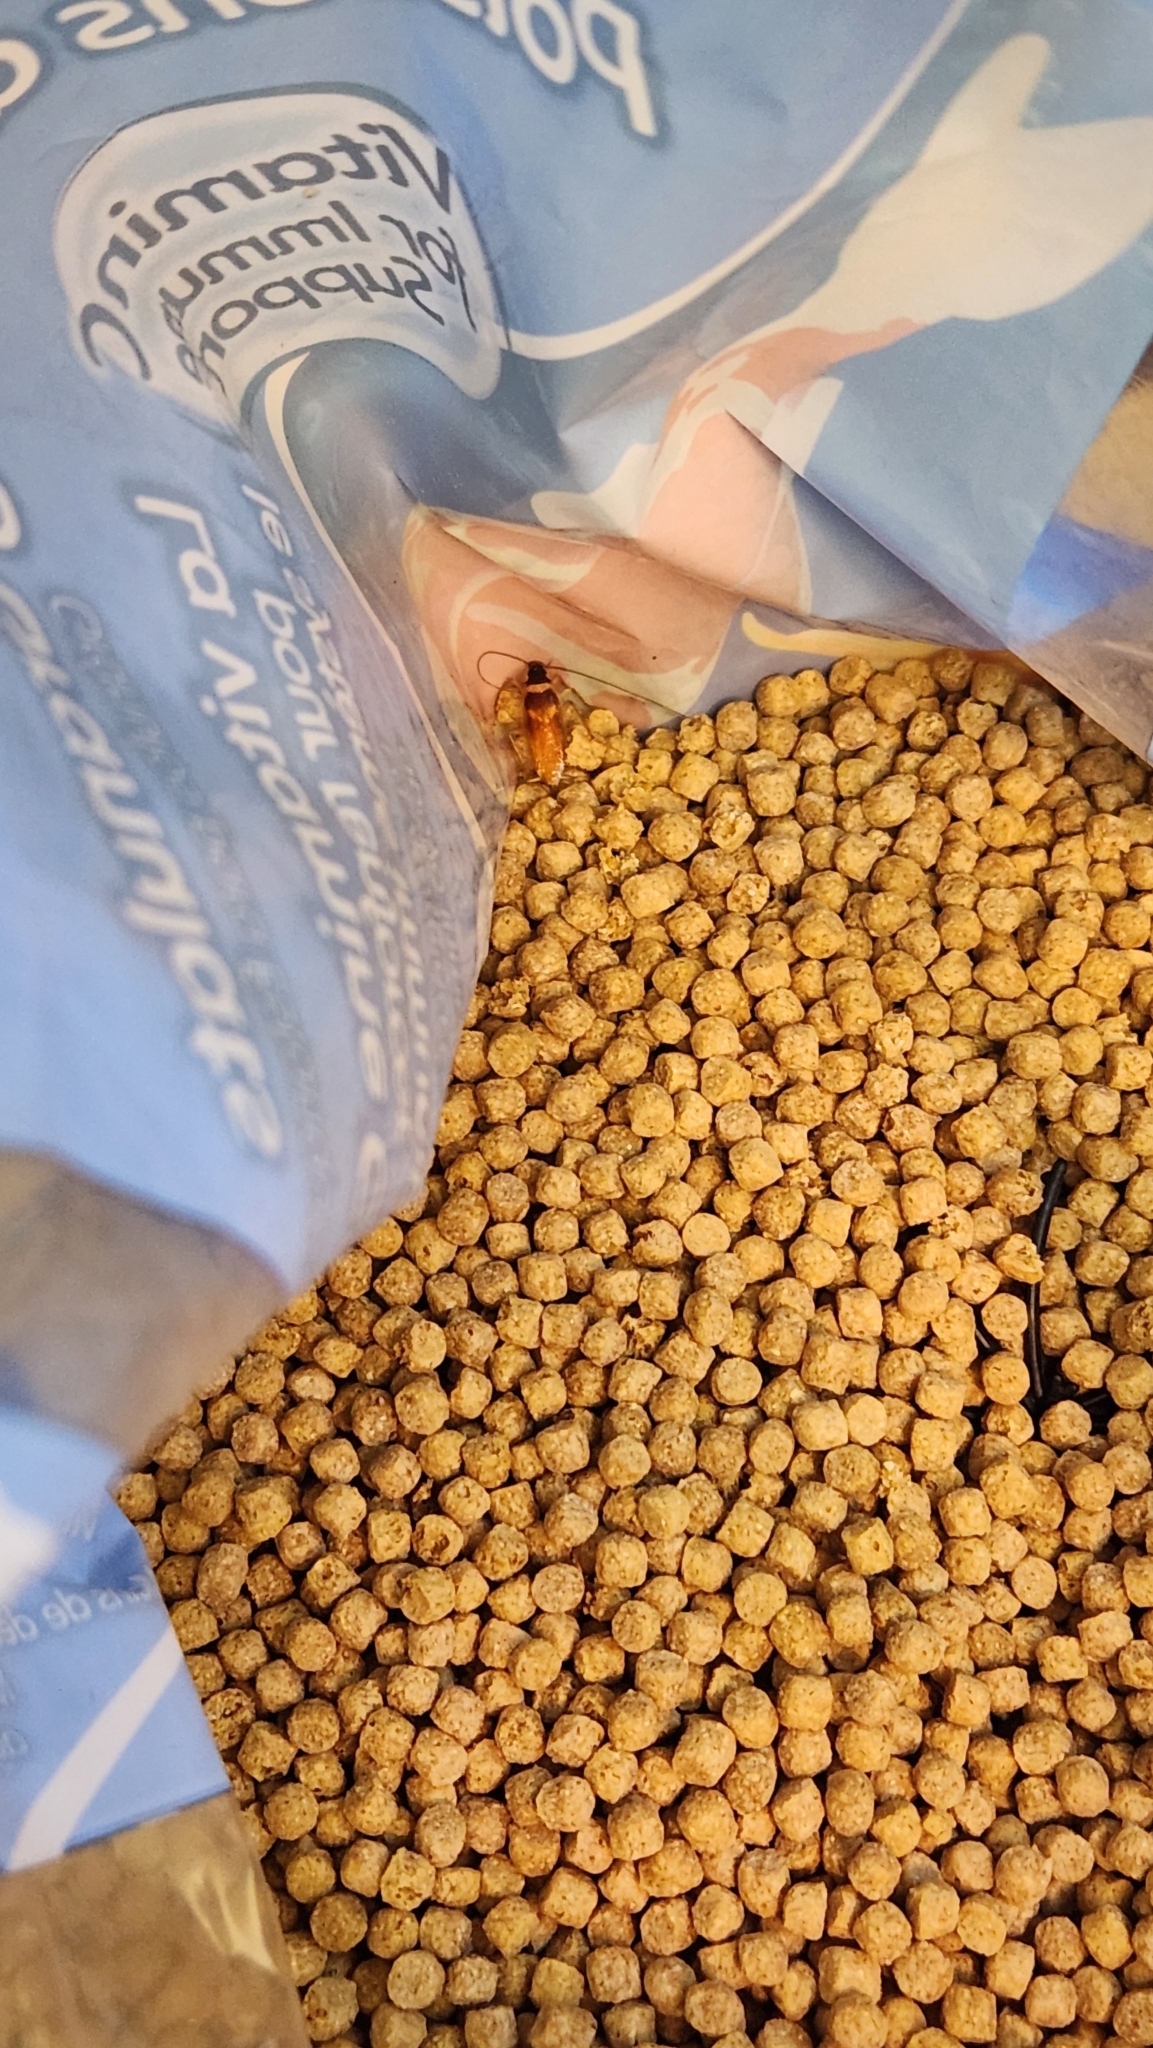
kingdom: Animalia
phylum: Arthropoda
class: Insecta
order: Blattodea
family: Ectobiidae
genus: Supella
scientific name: Supella longipalpa
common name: Brown-banded cockroach
